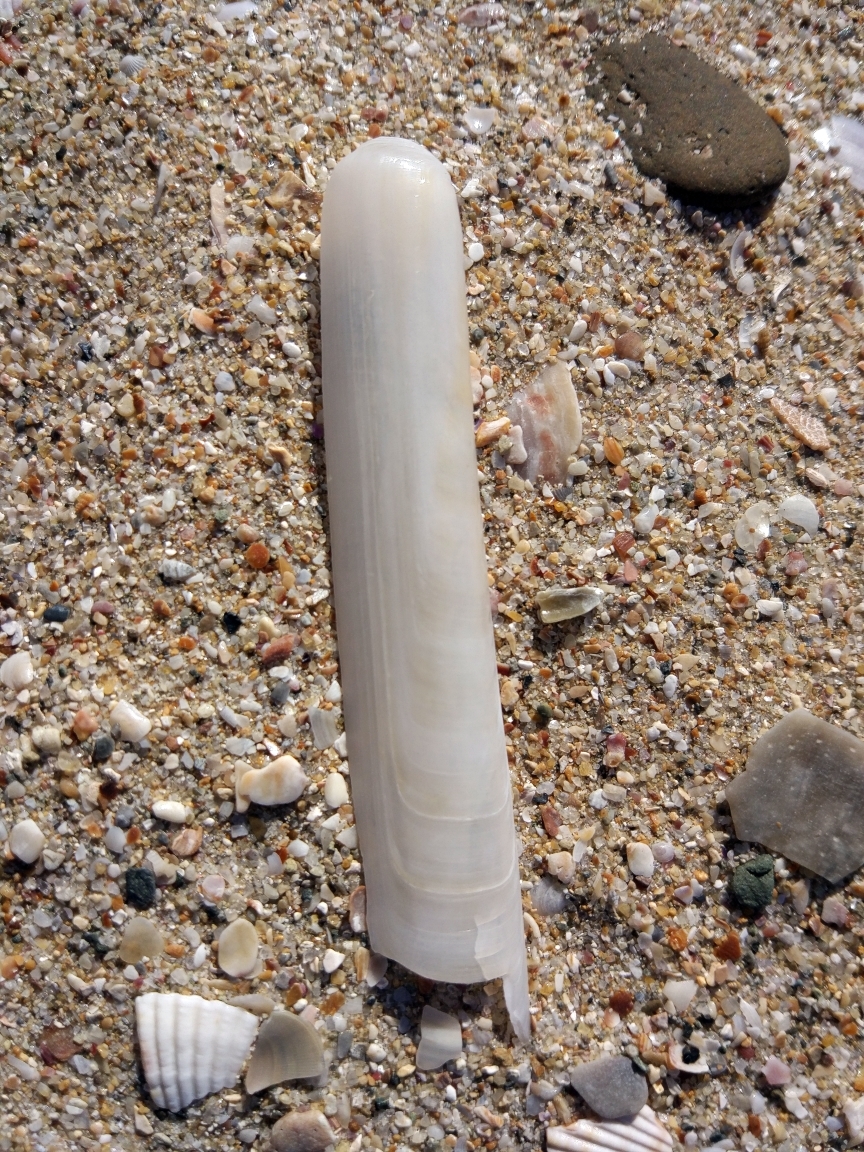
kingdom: Animalia
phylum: Mollusca
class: Bivalvia
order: Adapedonta
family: Solenidae
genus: Solen
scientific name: Solen marginatus
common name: Grooved razor shell
